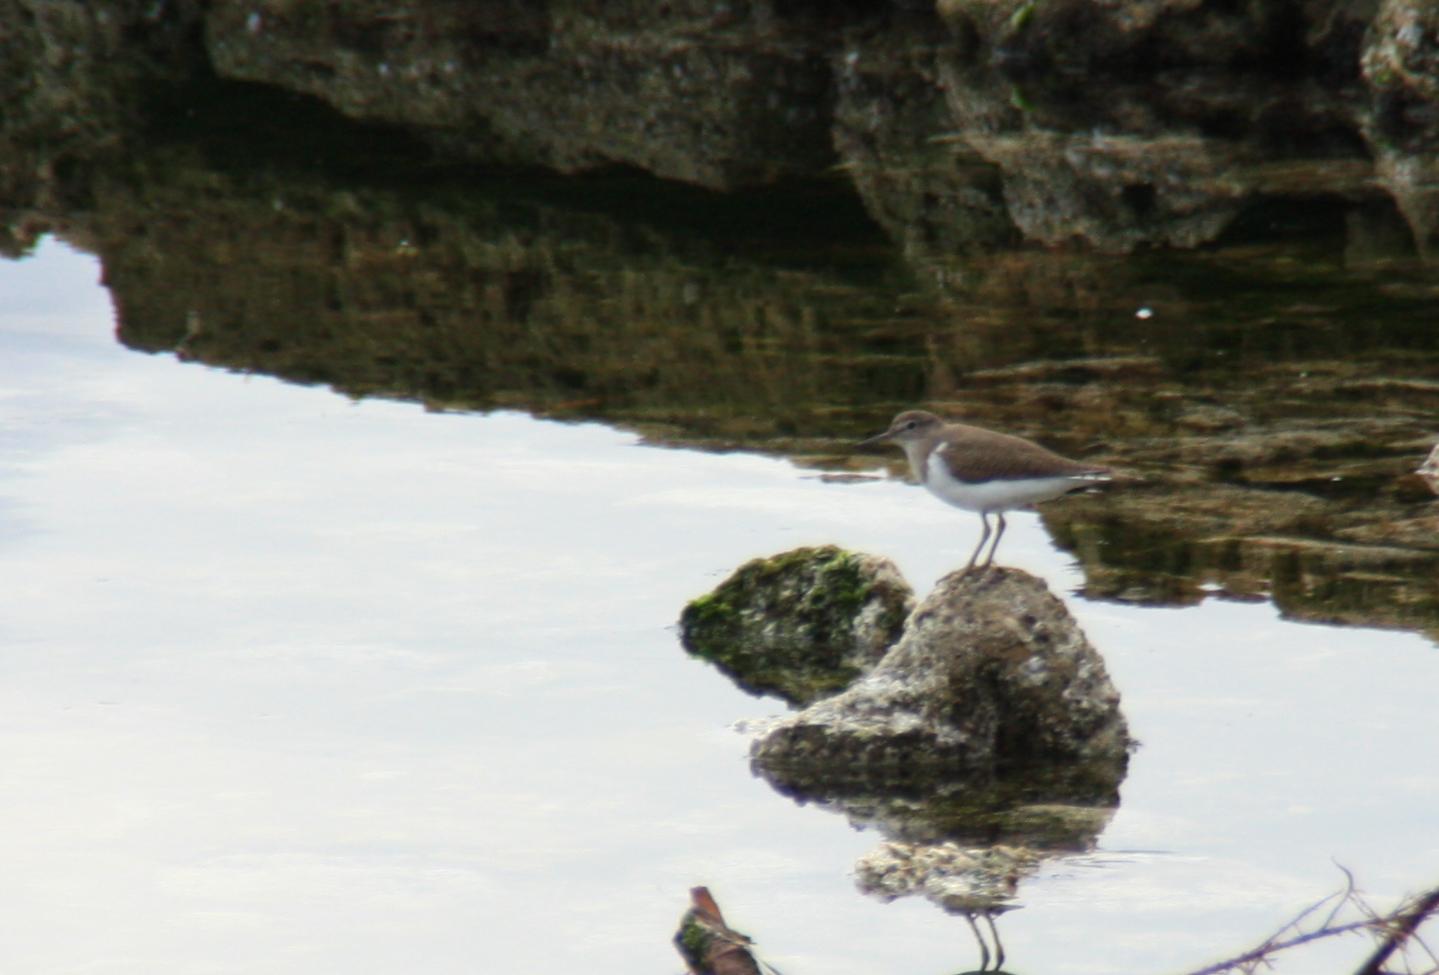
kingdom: Animalia
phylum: Chordata
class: Aves
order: Charadriiformes
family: Scolopacidae
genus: Actitis
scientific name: Actitis hypoleucos
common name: Common sandpiper
